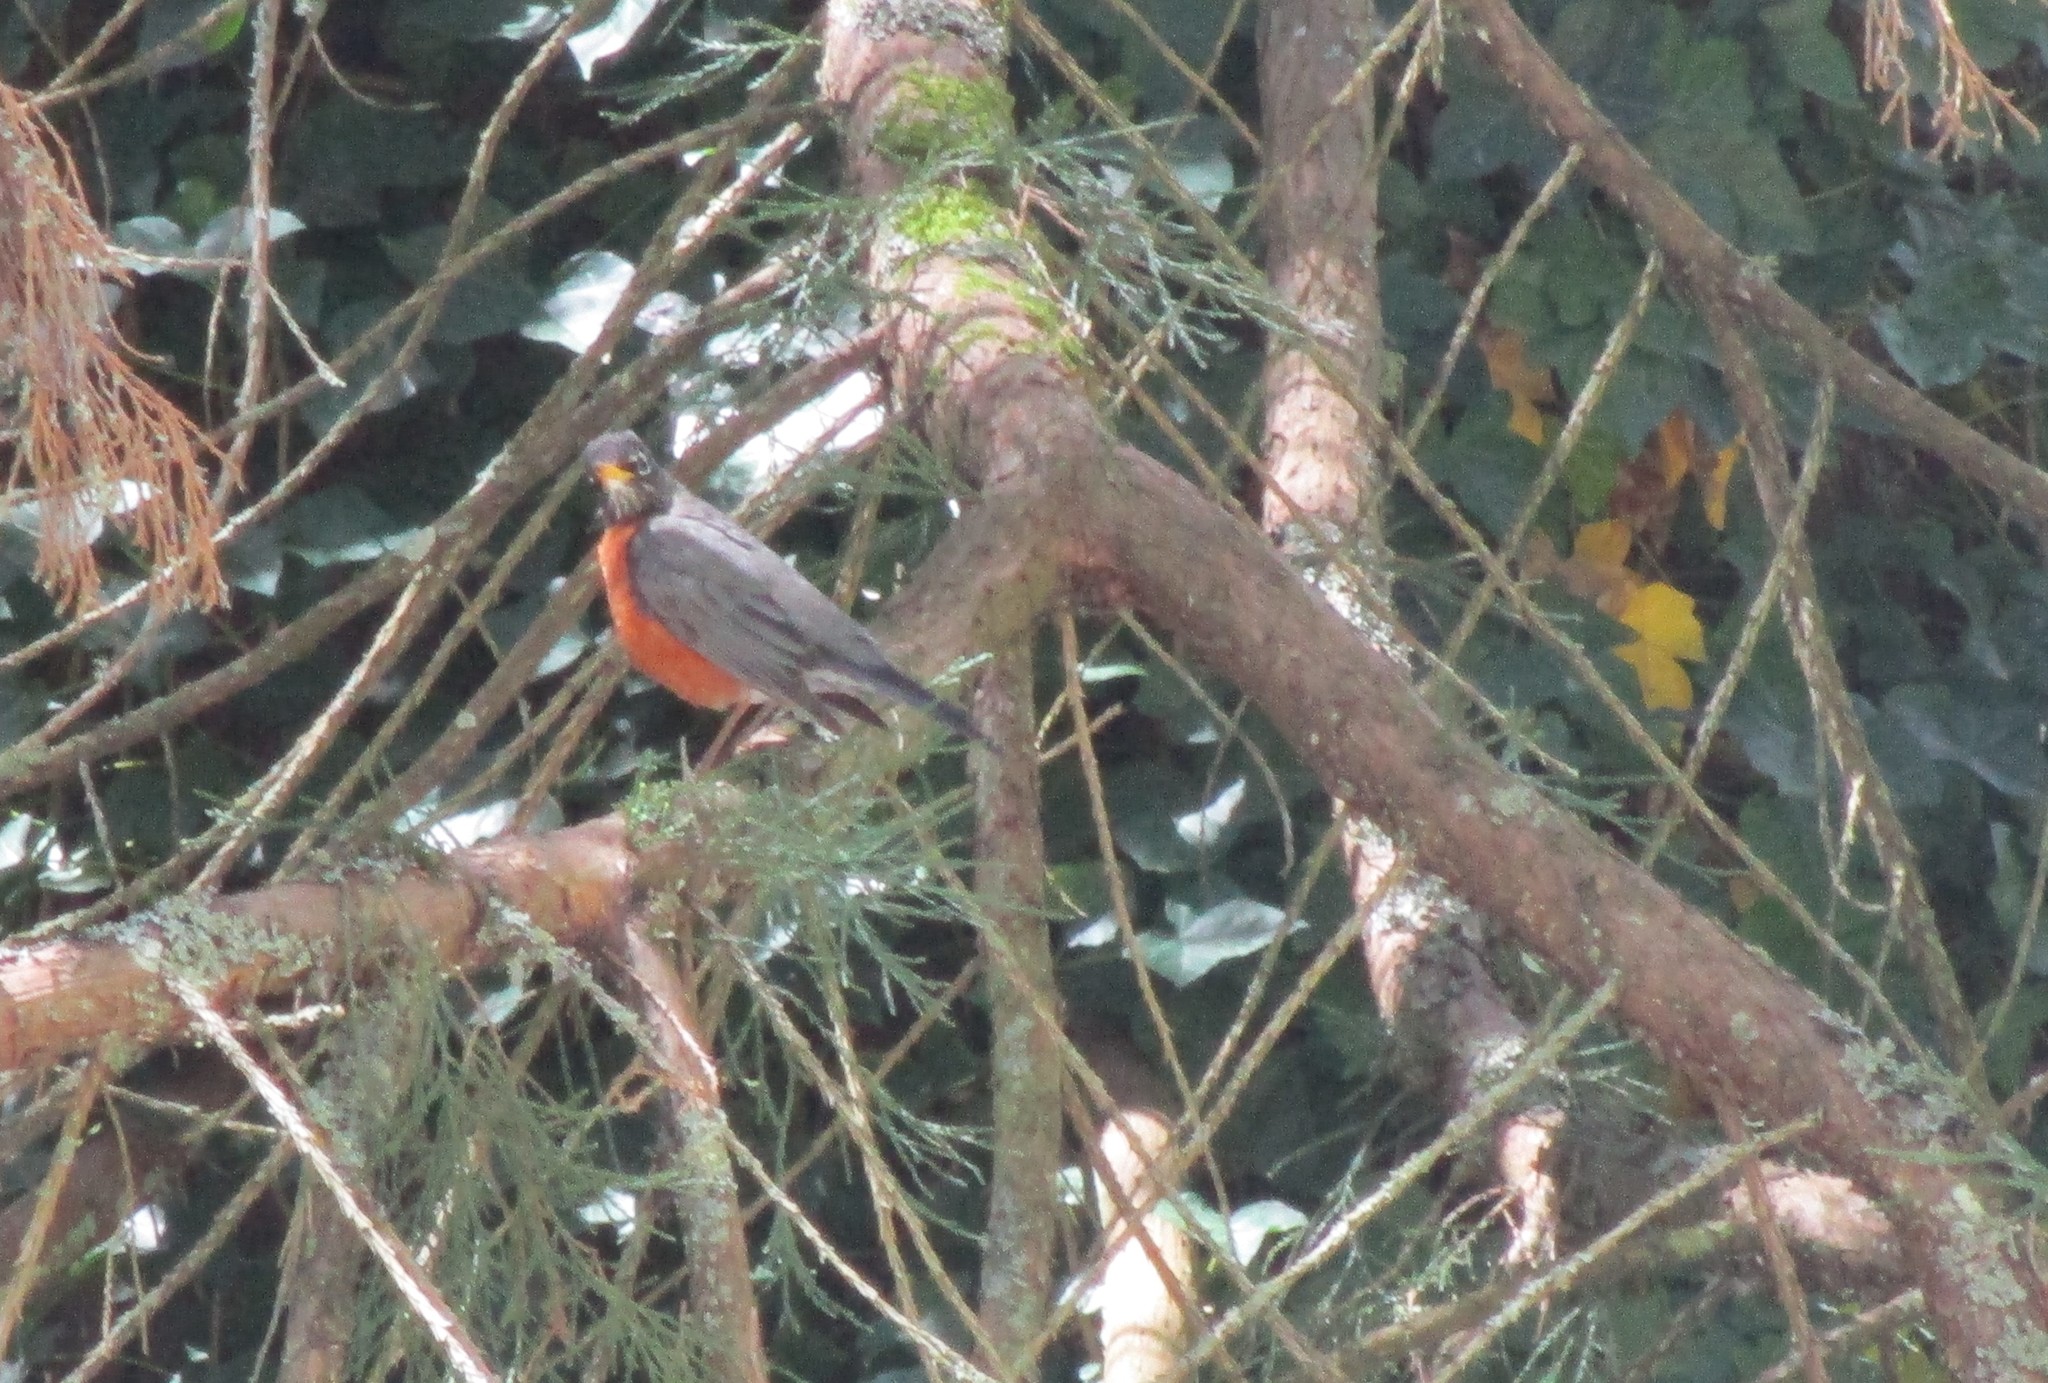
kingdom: Animalia
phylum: Chordata
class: Aves
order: Passeriformes
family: Turdidae
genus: Turdus
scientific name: Turdus migratorius
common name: American robin
